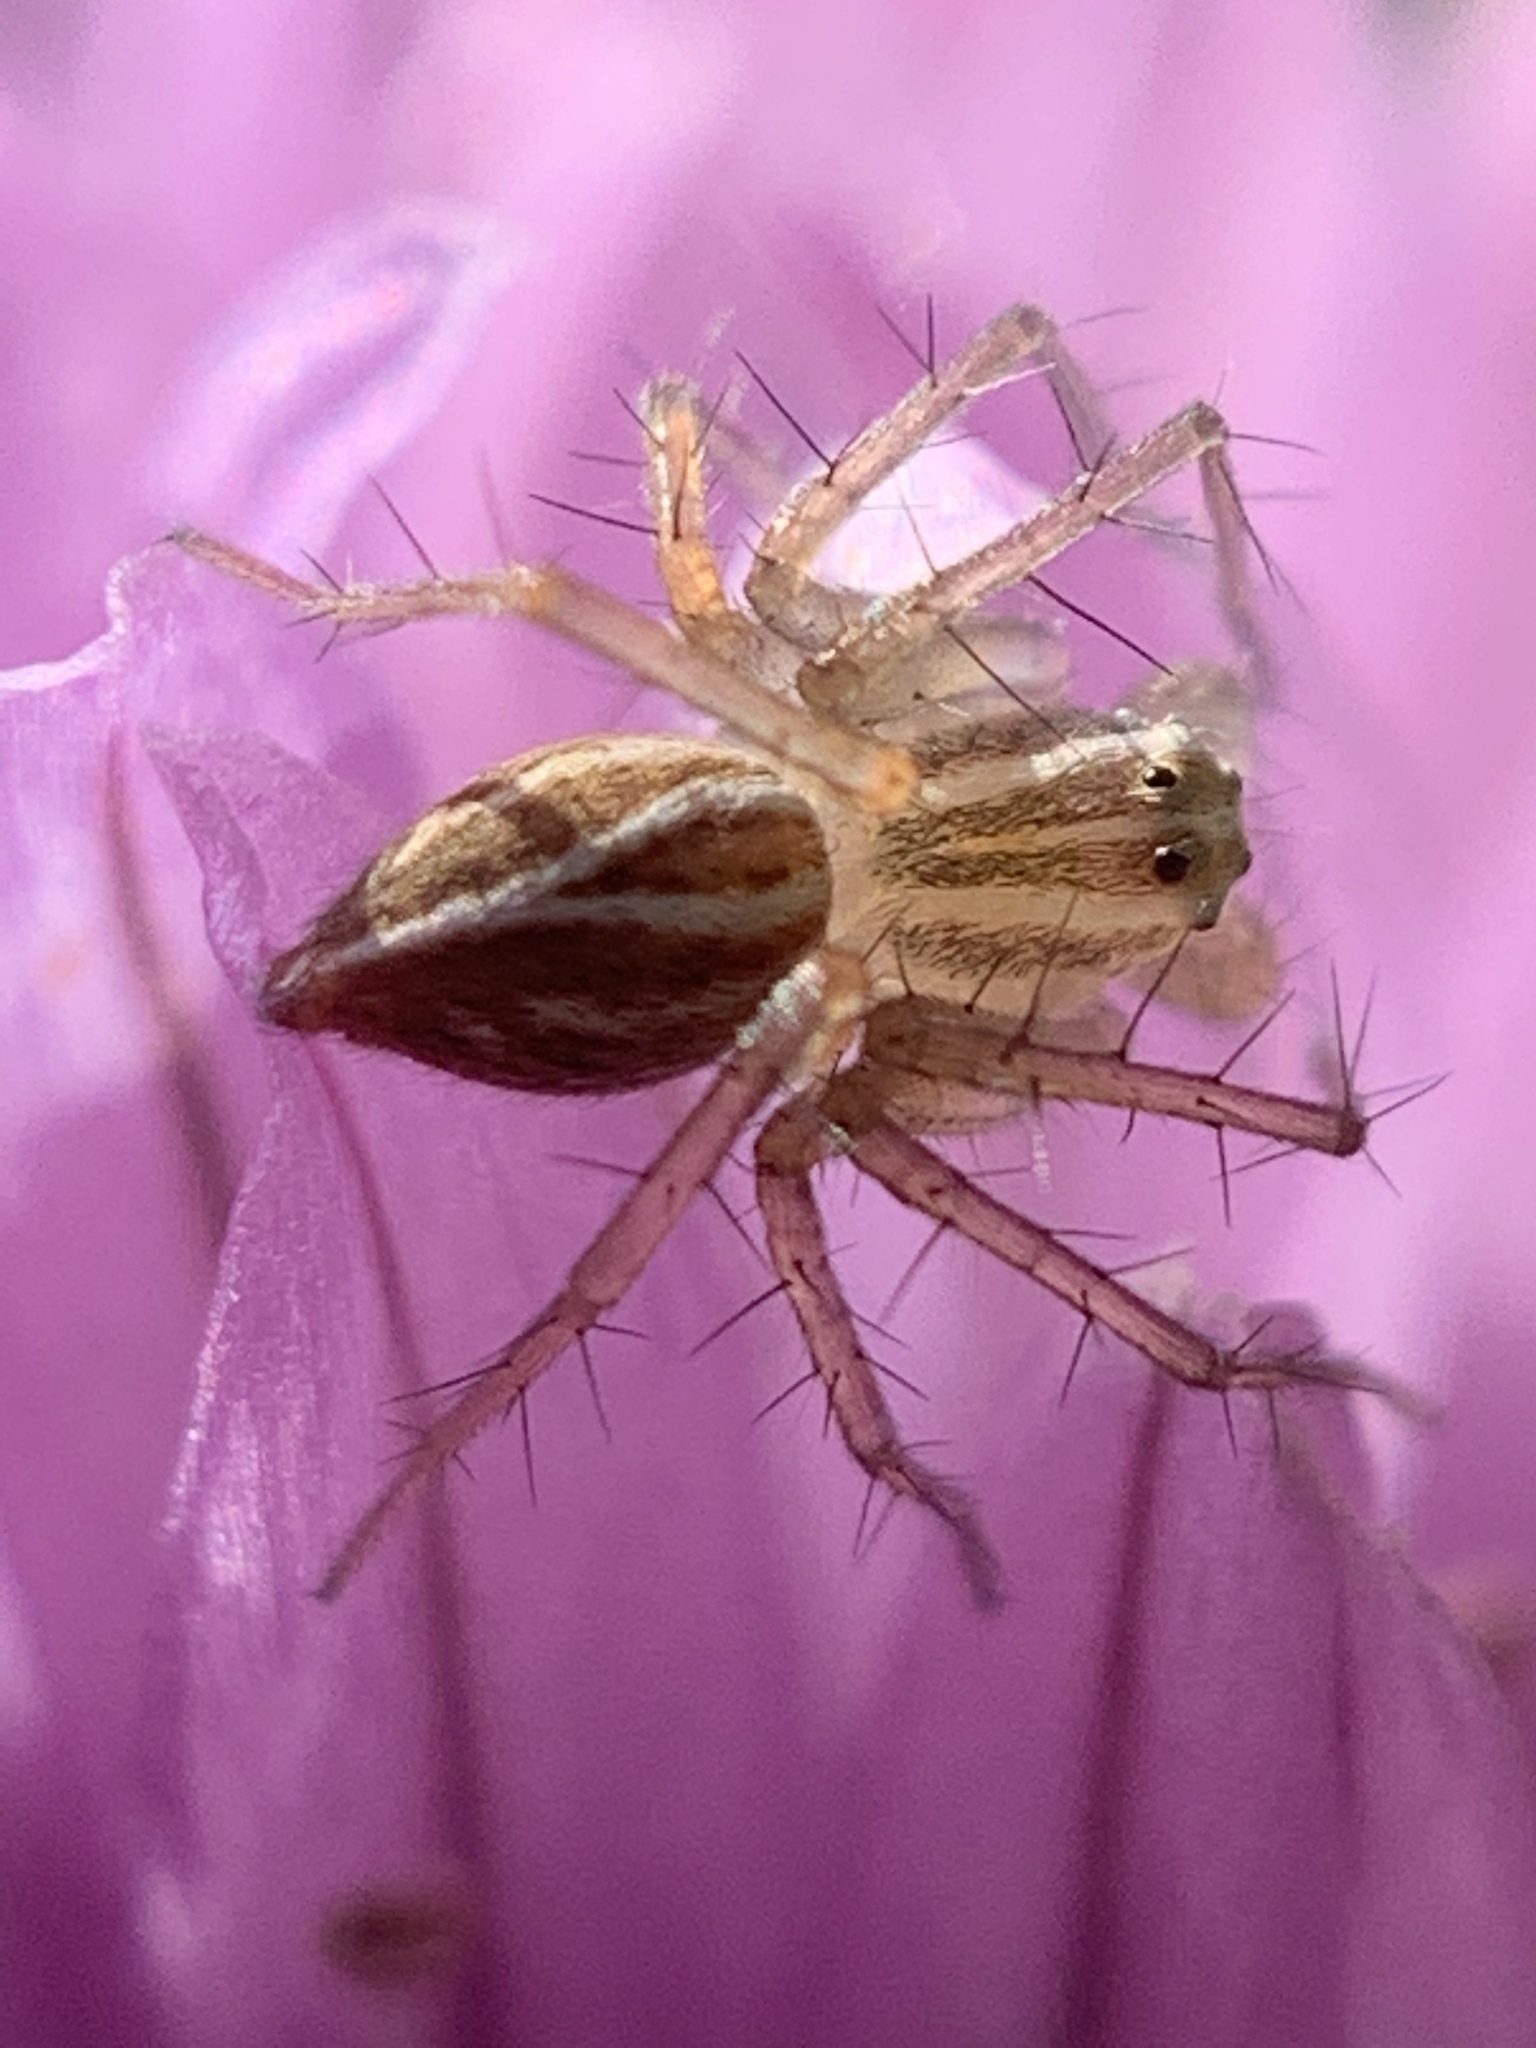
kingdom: Animalia
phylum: Arthropoda
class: Arachnida
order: Araneae
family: Oxyopidae
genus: Oxyopes
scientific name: Oxyopes salticus
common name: Lynx spiders
